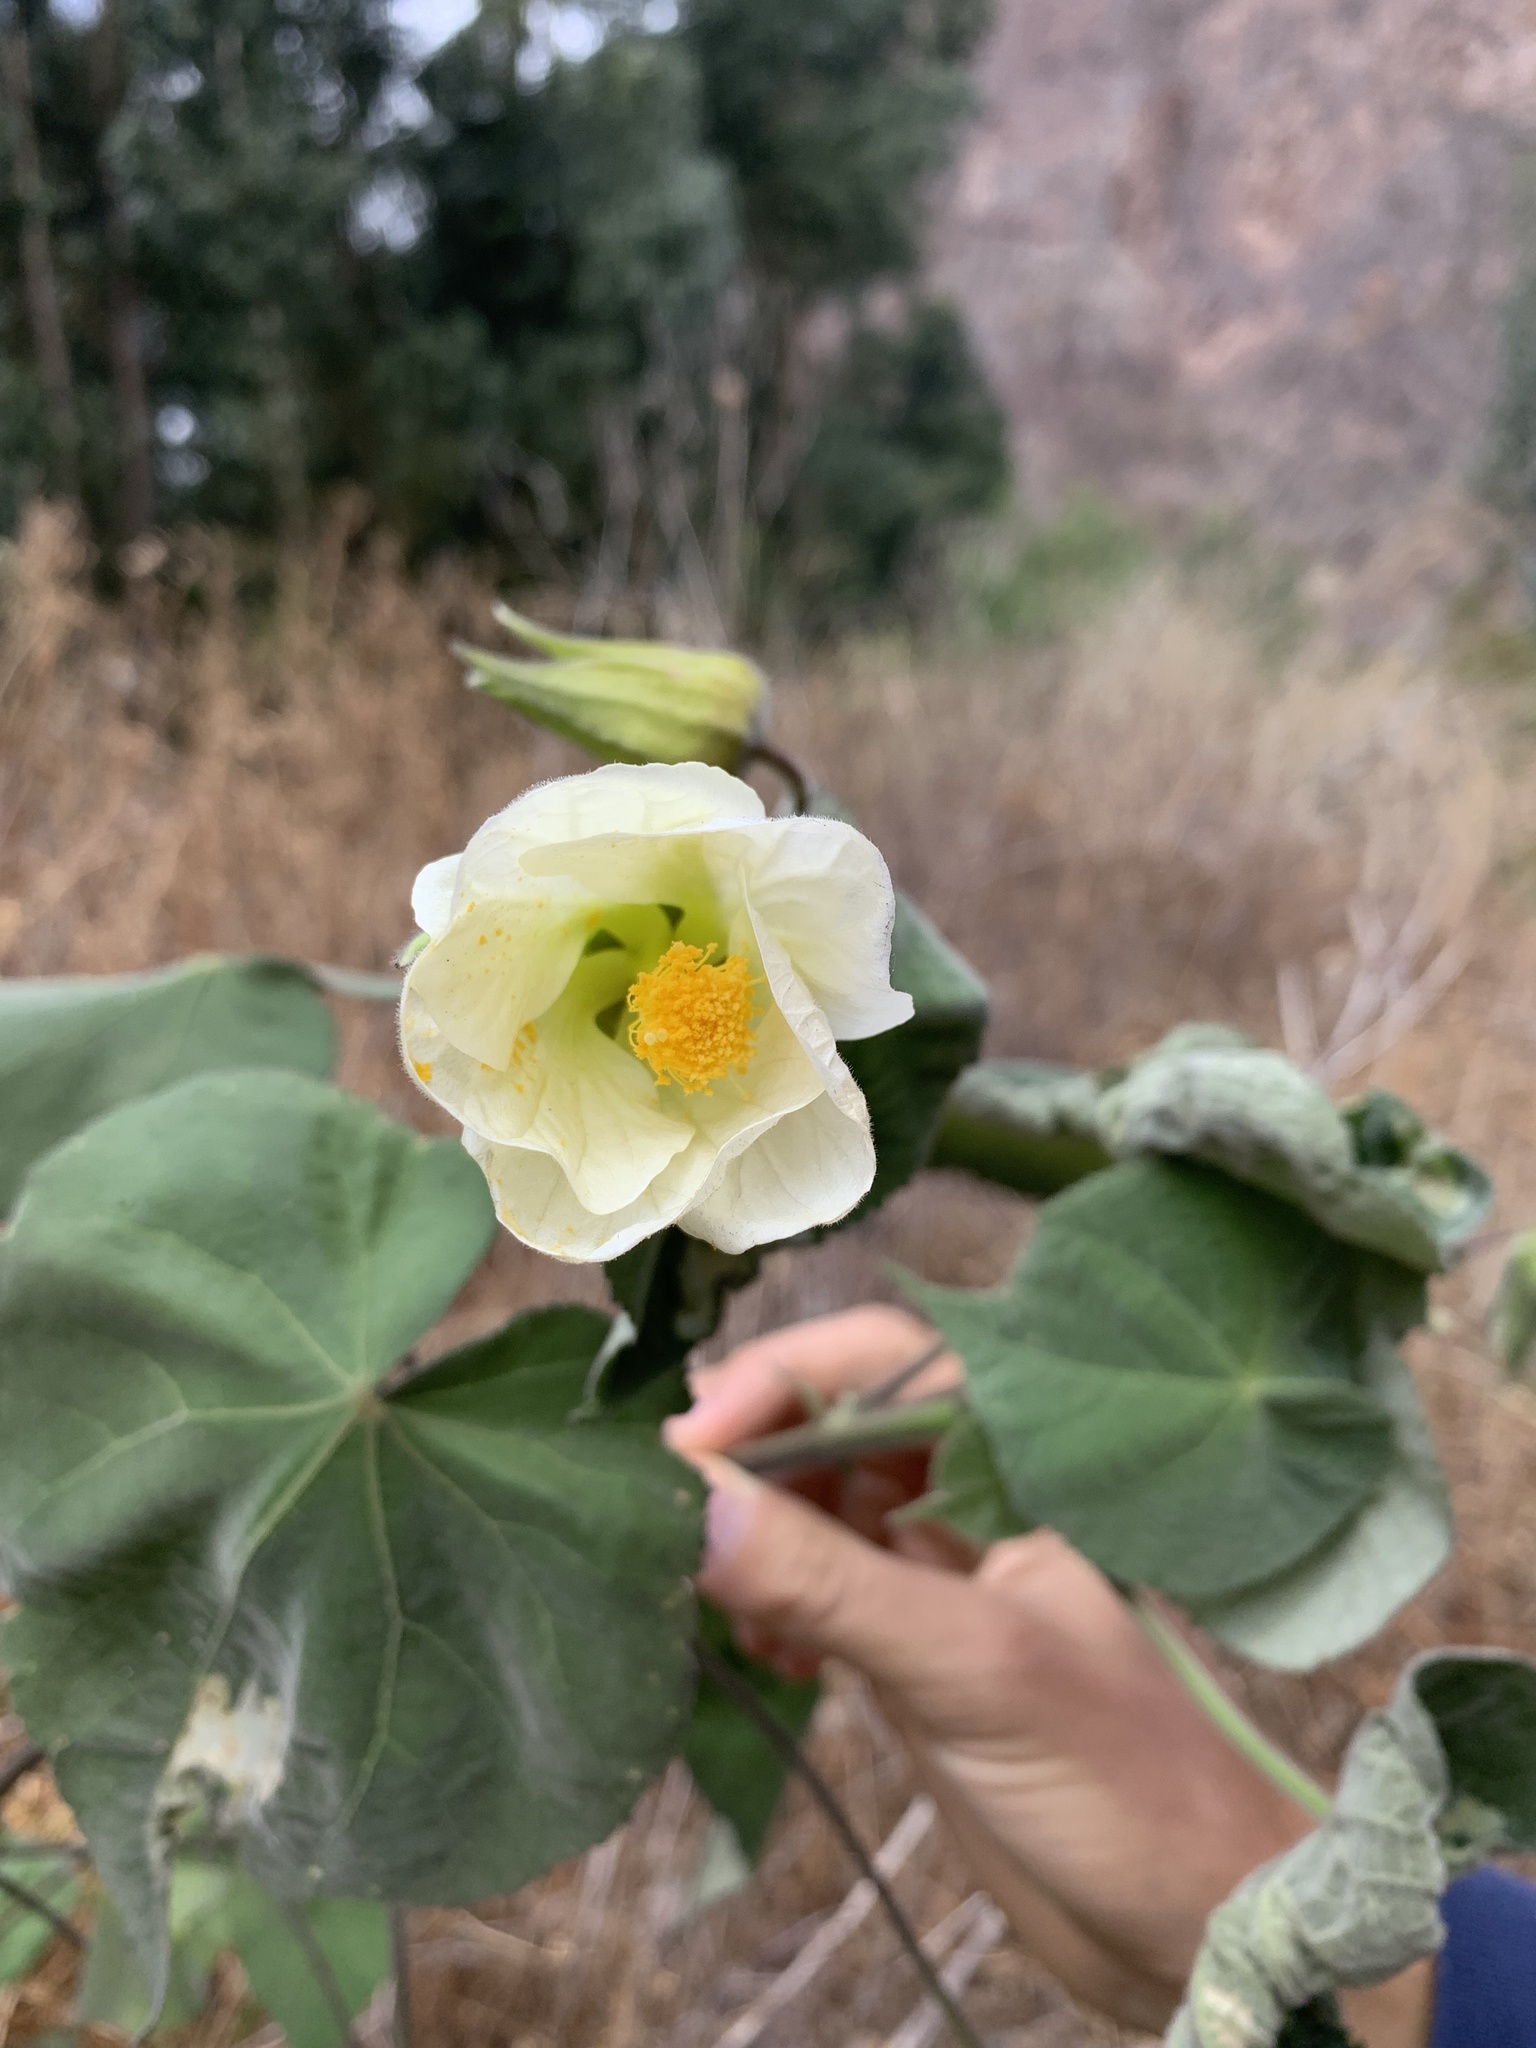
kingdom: Plantae
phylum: Tracheophyta
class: Magnoliopsida
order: Malvales
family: Malvaceae
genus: Callianthe
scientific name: Callianthe sylvatica
